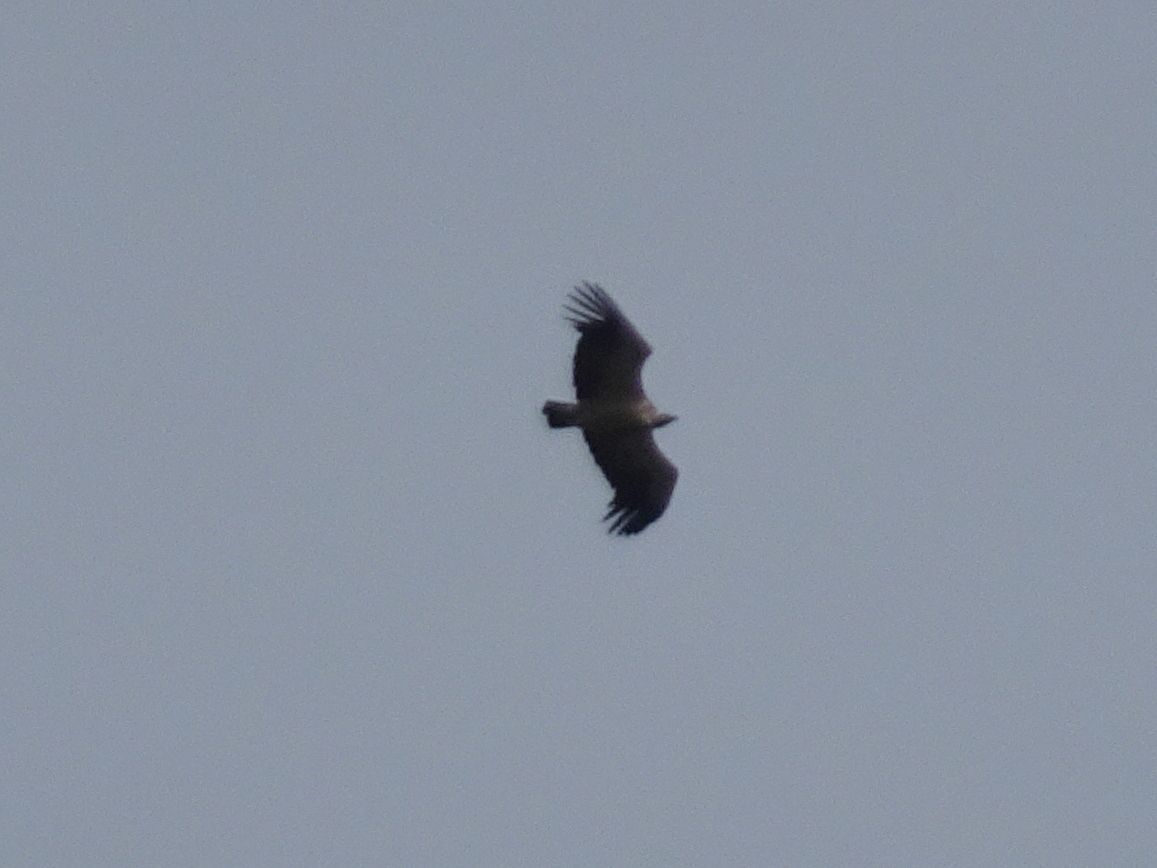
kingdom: Animalia
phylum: Chordata
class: Aves
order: Accipitriformes
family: Accipitridae
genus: Gyps
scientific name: Gyps coprotheres
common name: Cape vulture
